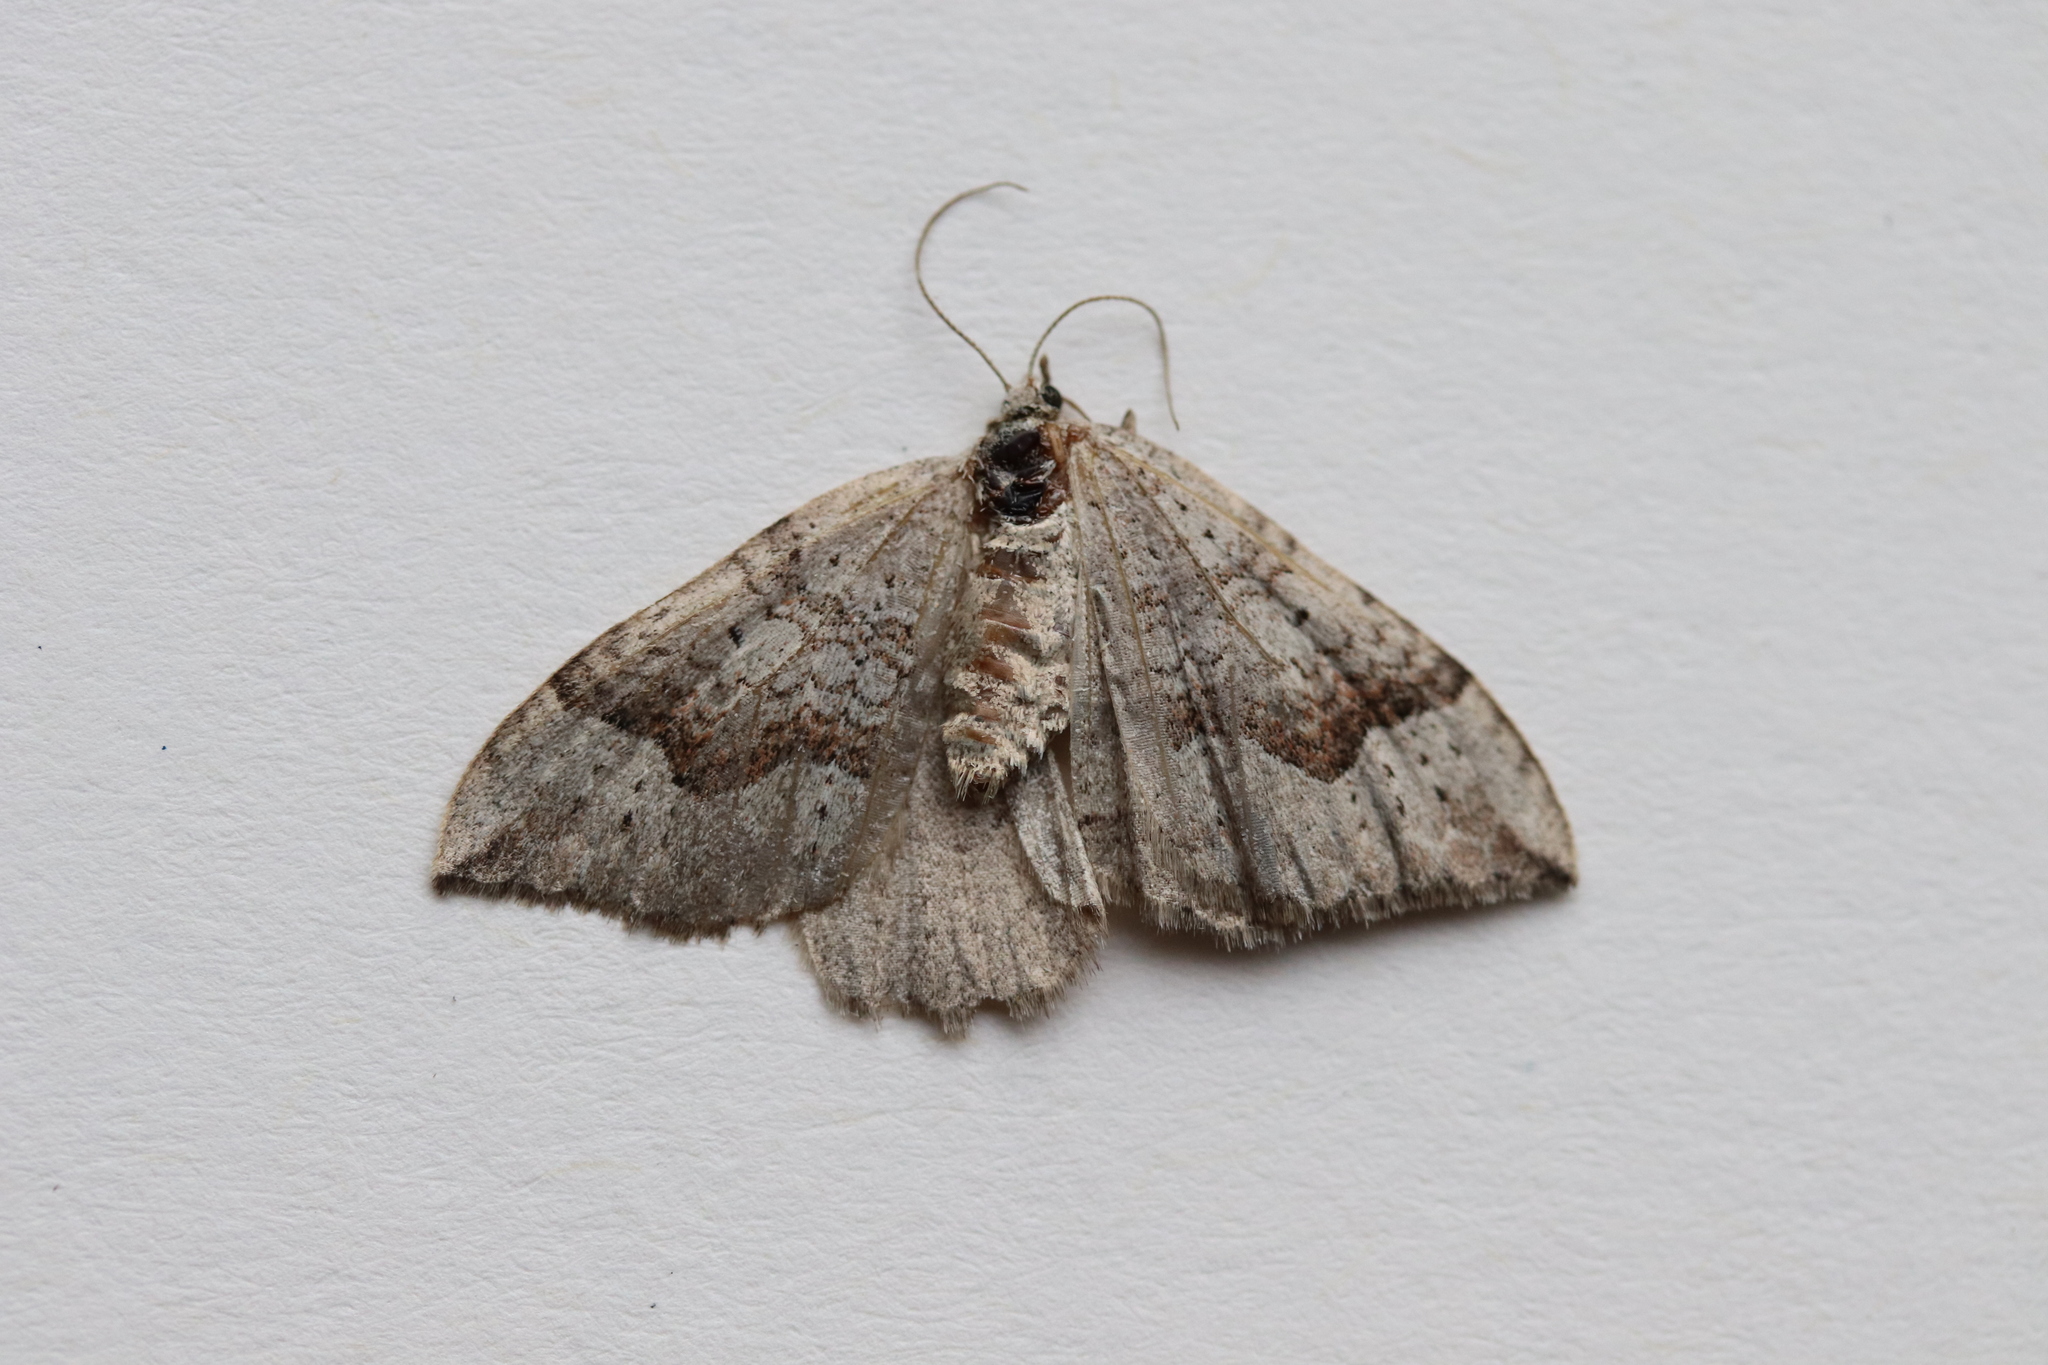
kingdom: Animalia
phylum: Arthropoda
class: Insecta
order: Lepidoptera
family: Geometridae
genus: Zenophleps
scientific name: Zenophleps alpinata
